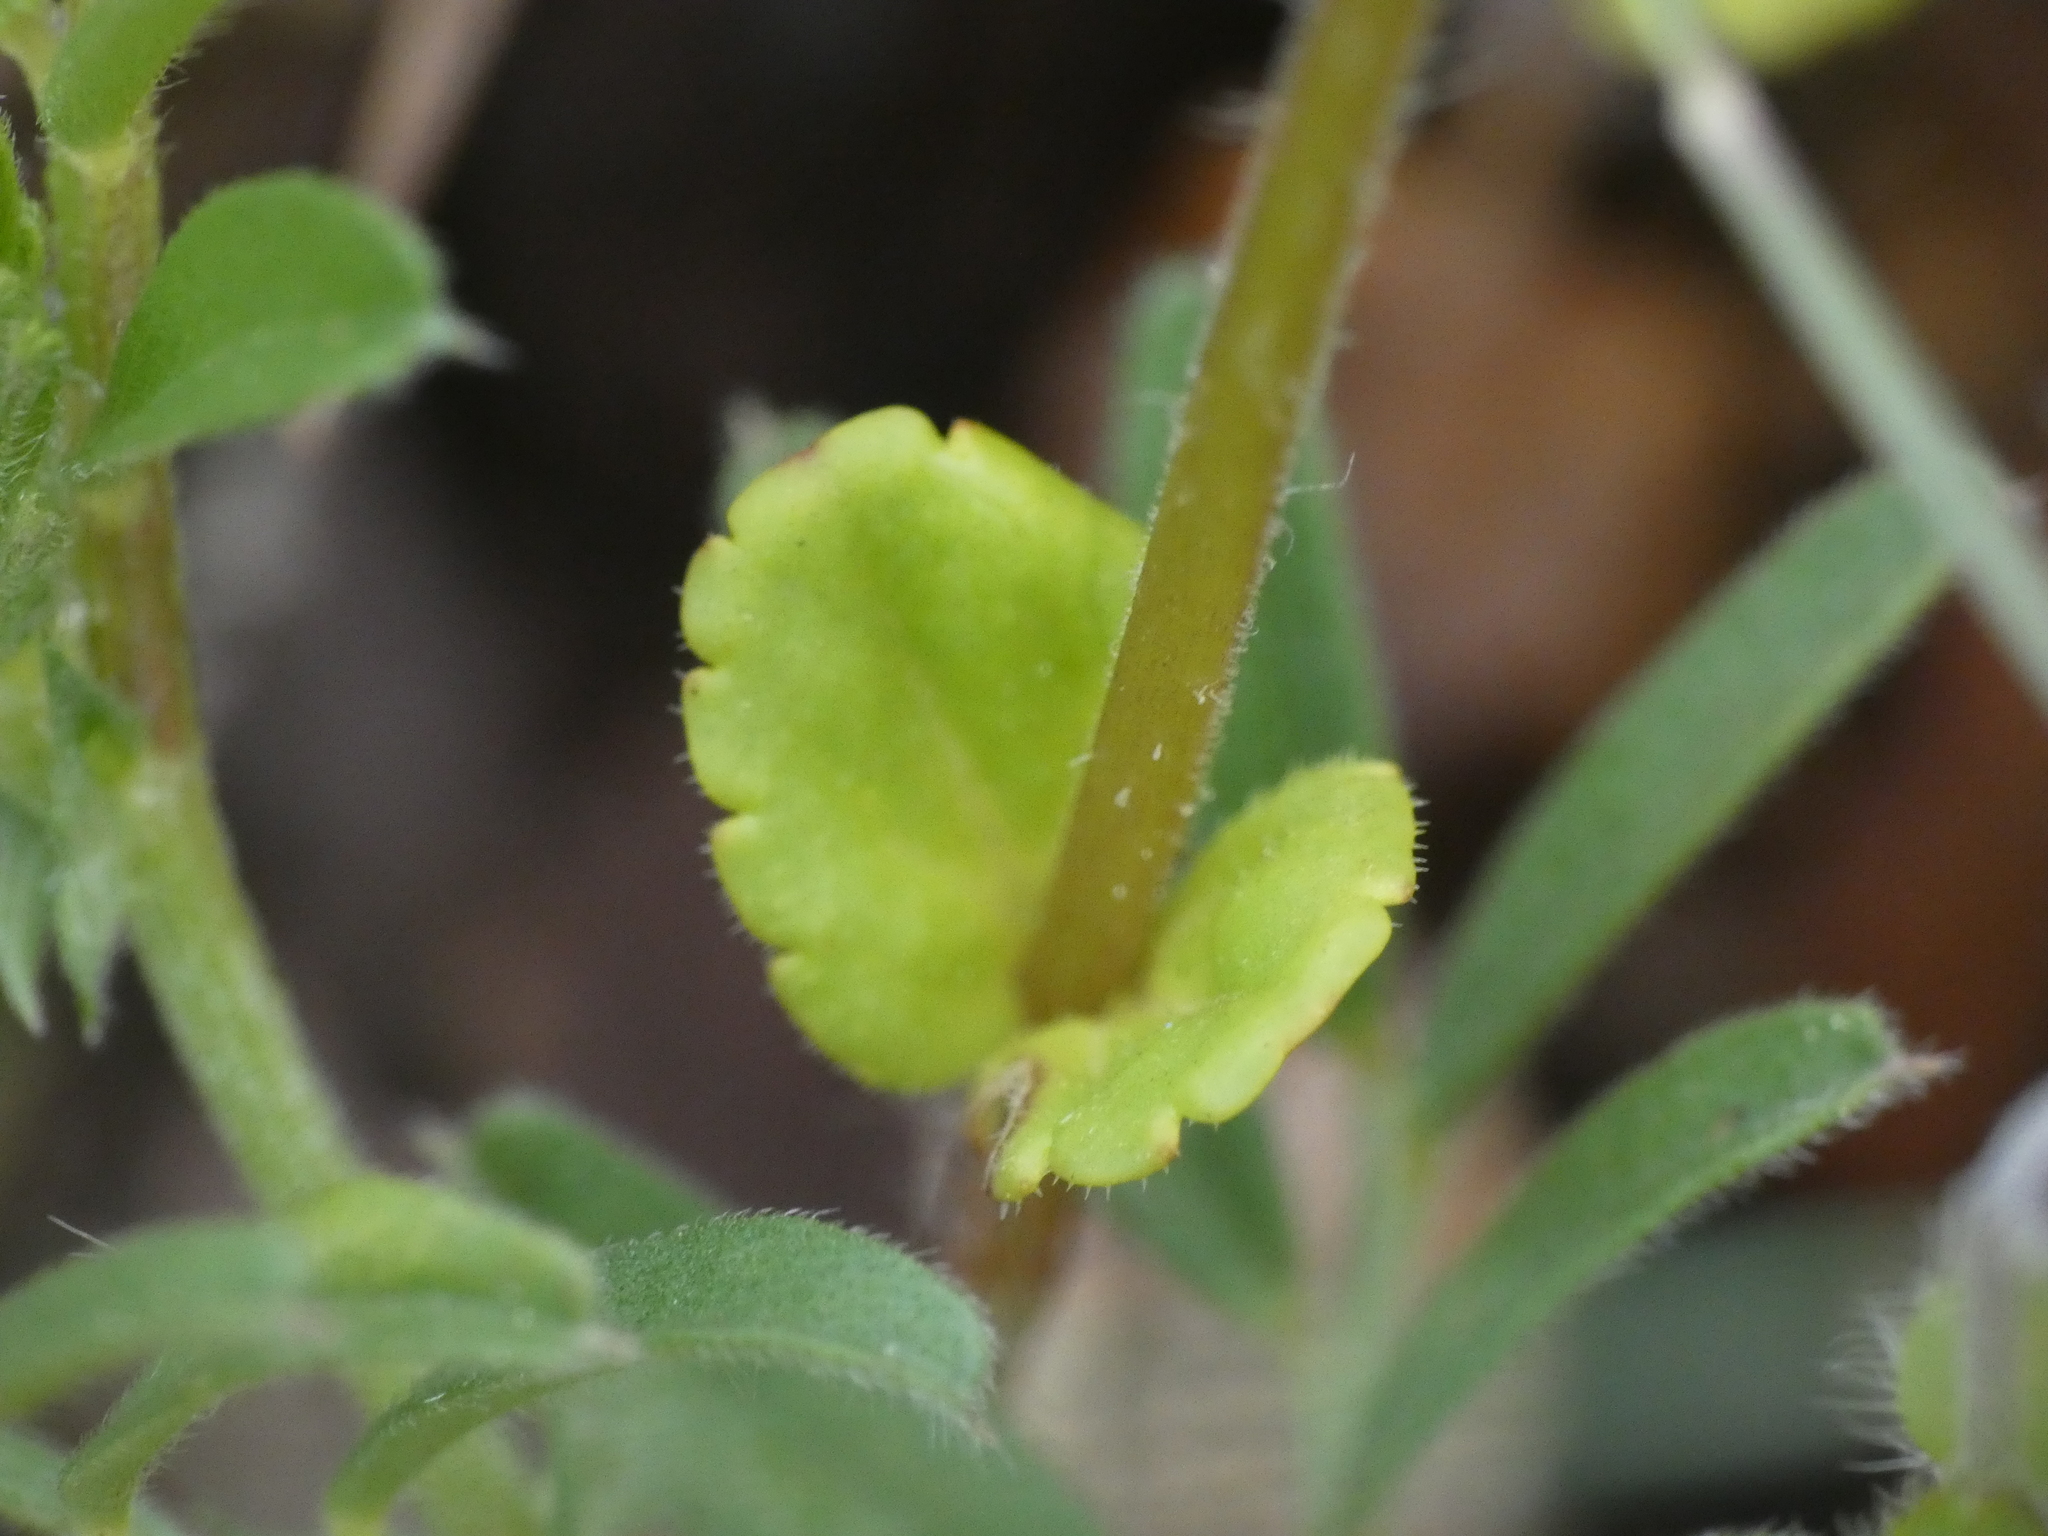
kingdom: Plantae
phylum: Tracheophyta
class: Magnoliopsida
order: Lamiales
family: Plantaginaceae
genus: Veronica
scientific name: Veronica arvensis
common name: Corn speedwell
